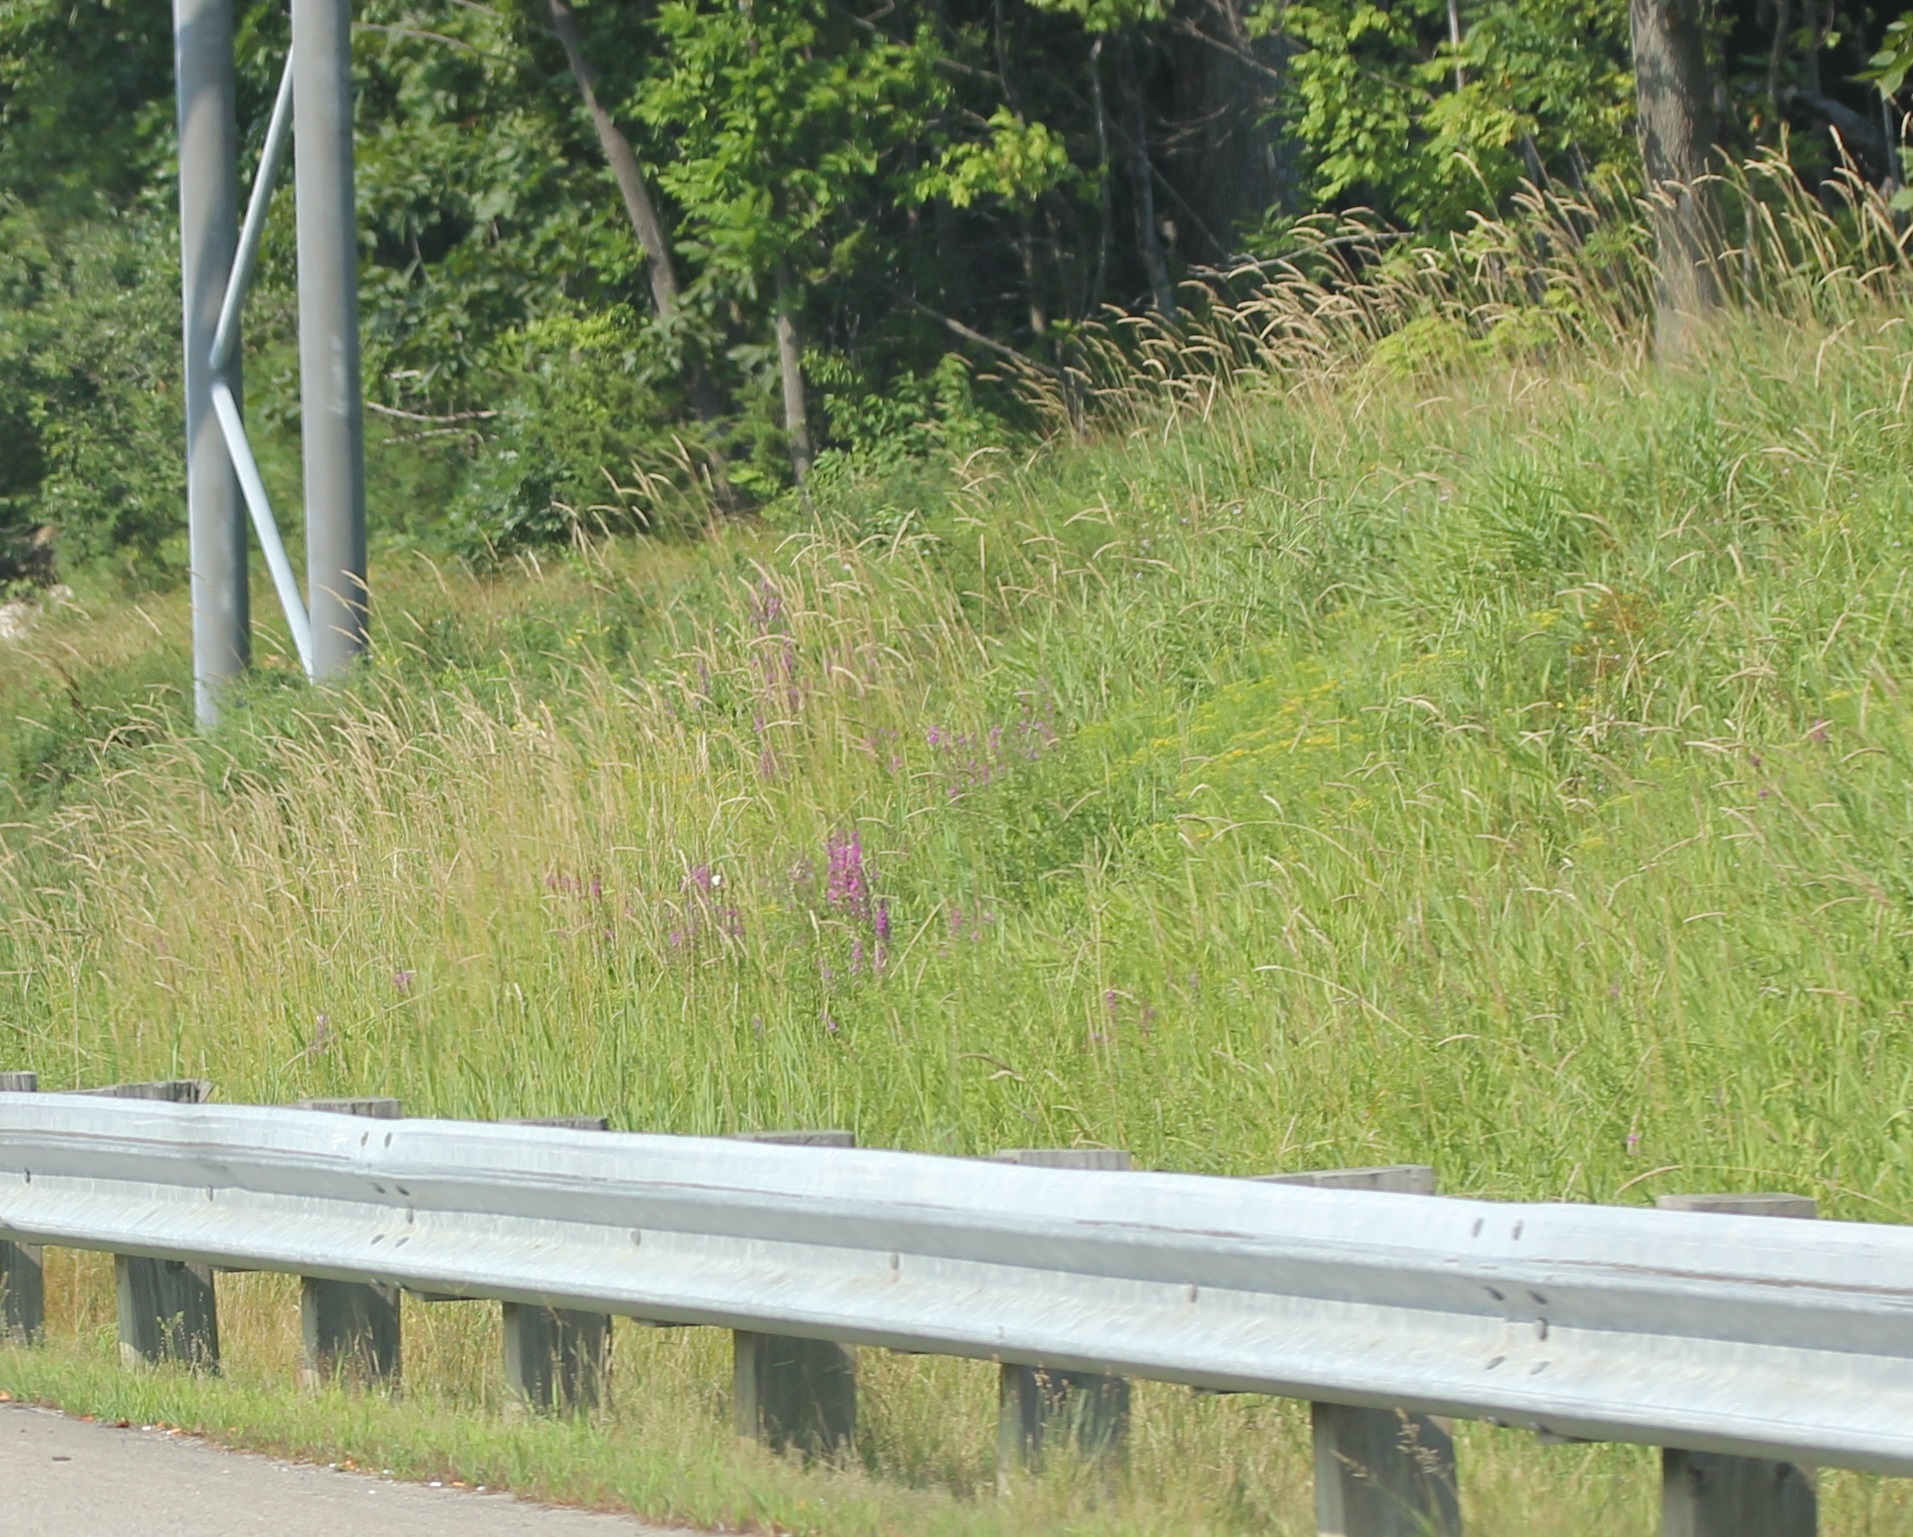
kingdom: Plantae
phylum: Tracheophyta
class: Magnoliopsida
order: Myrtales
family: Lythraceae
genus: Lythrum
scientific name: Lythrum salicaria
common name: Purple loosestrife
